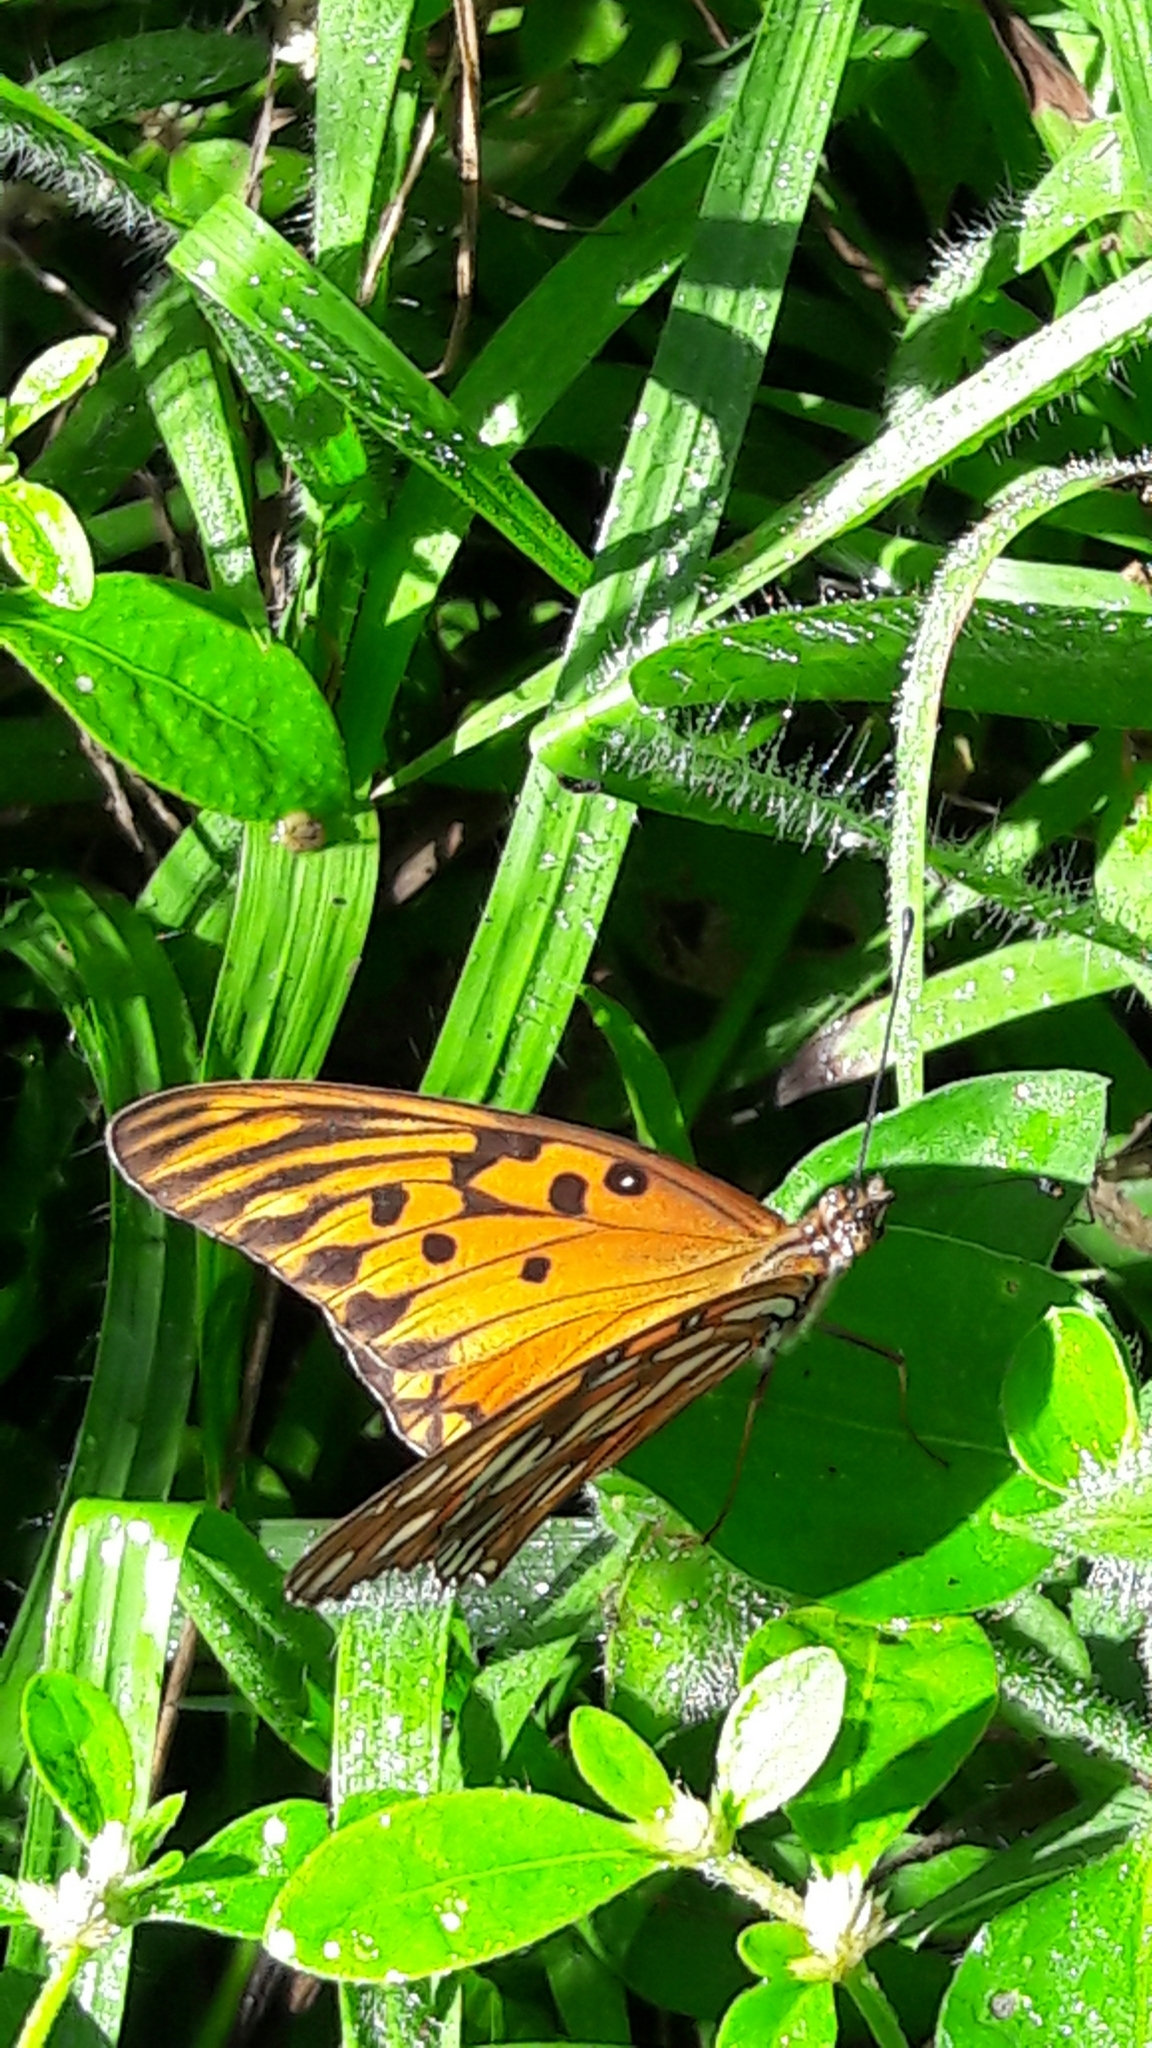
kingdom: Animalia
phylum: Arthropoda
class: Insecta
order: Lepidoptera
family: Nymphalidae
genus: Dione
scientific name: Dione vanillae
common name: Gulf fritillary
